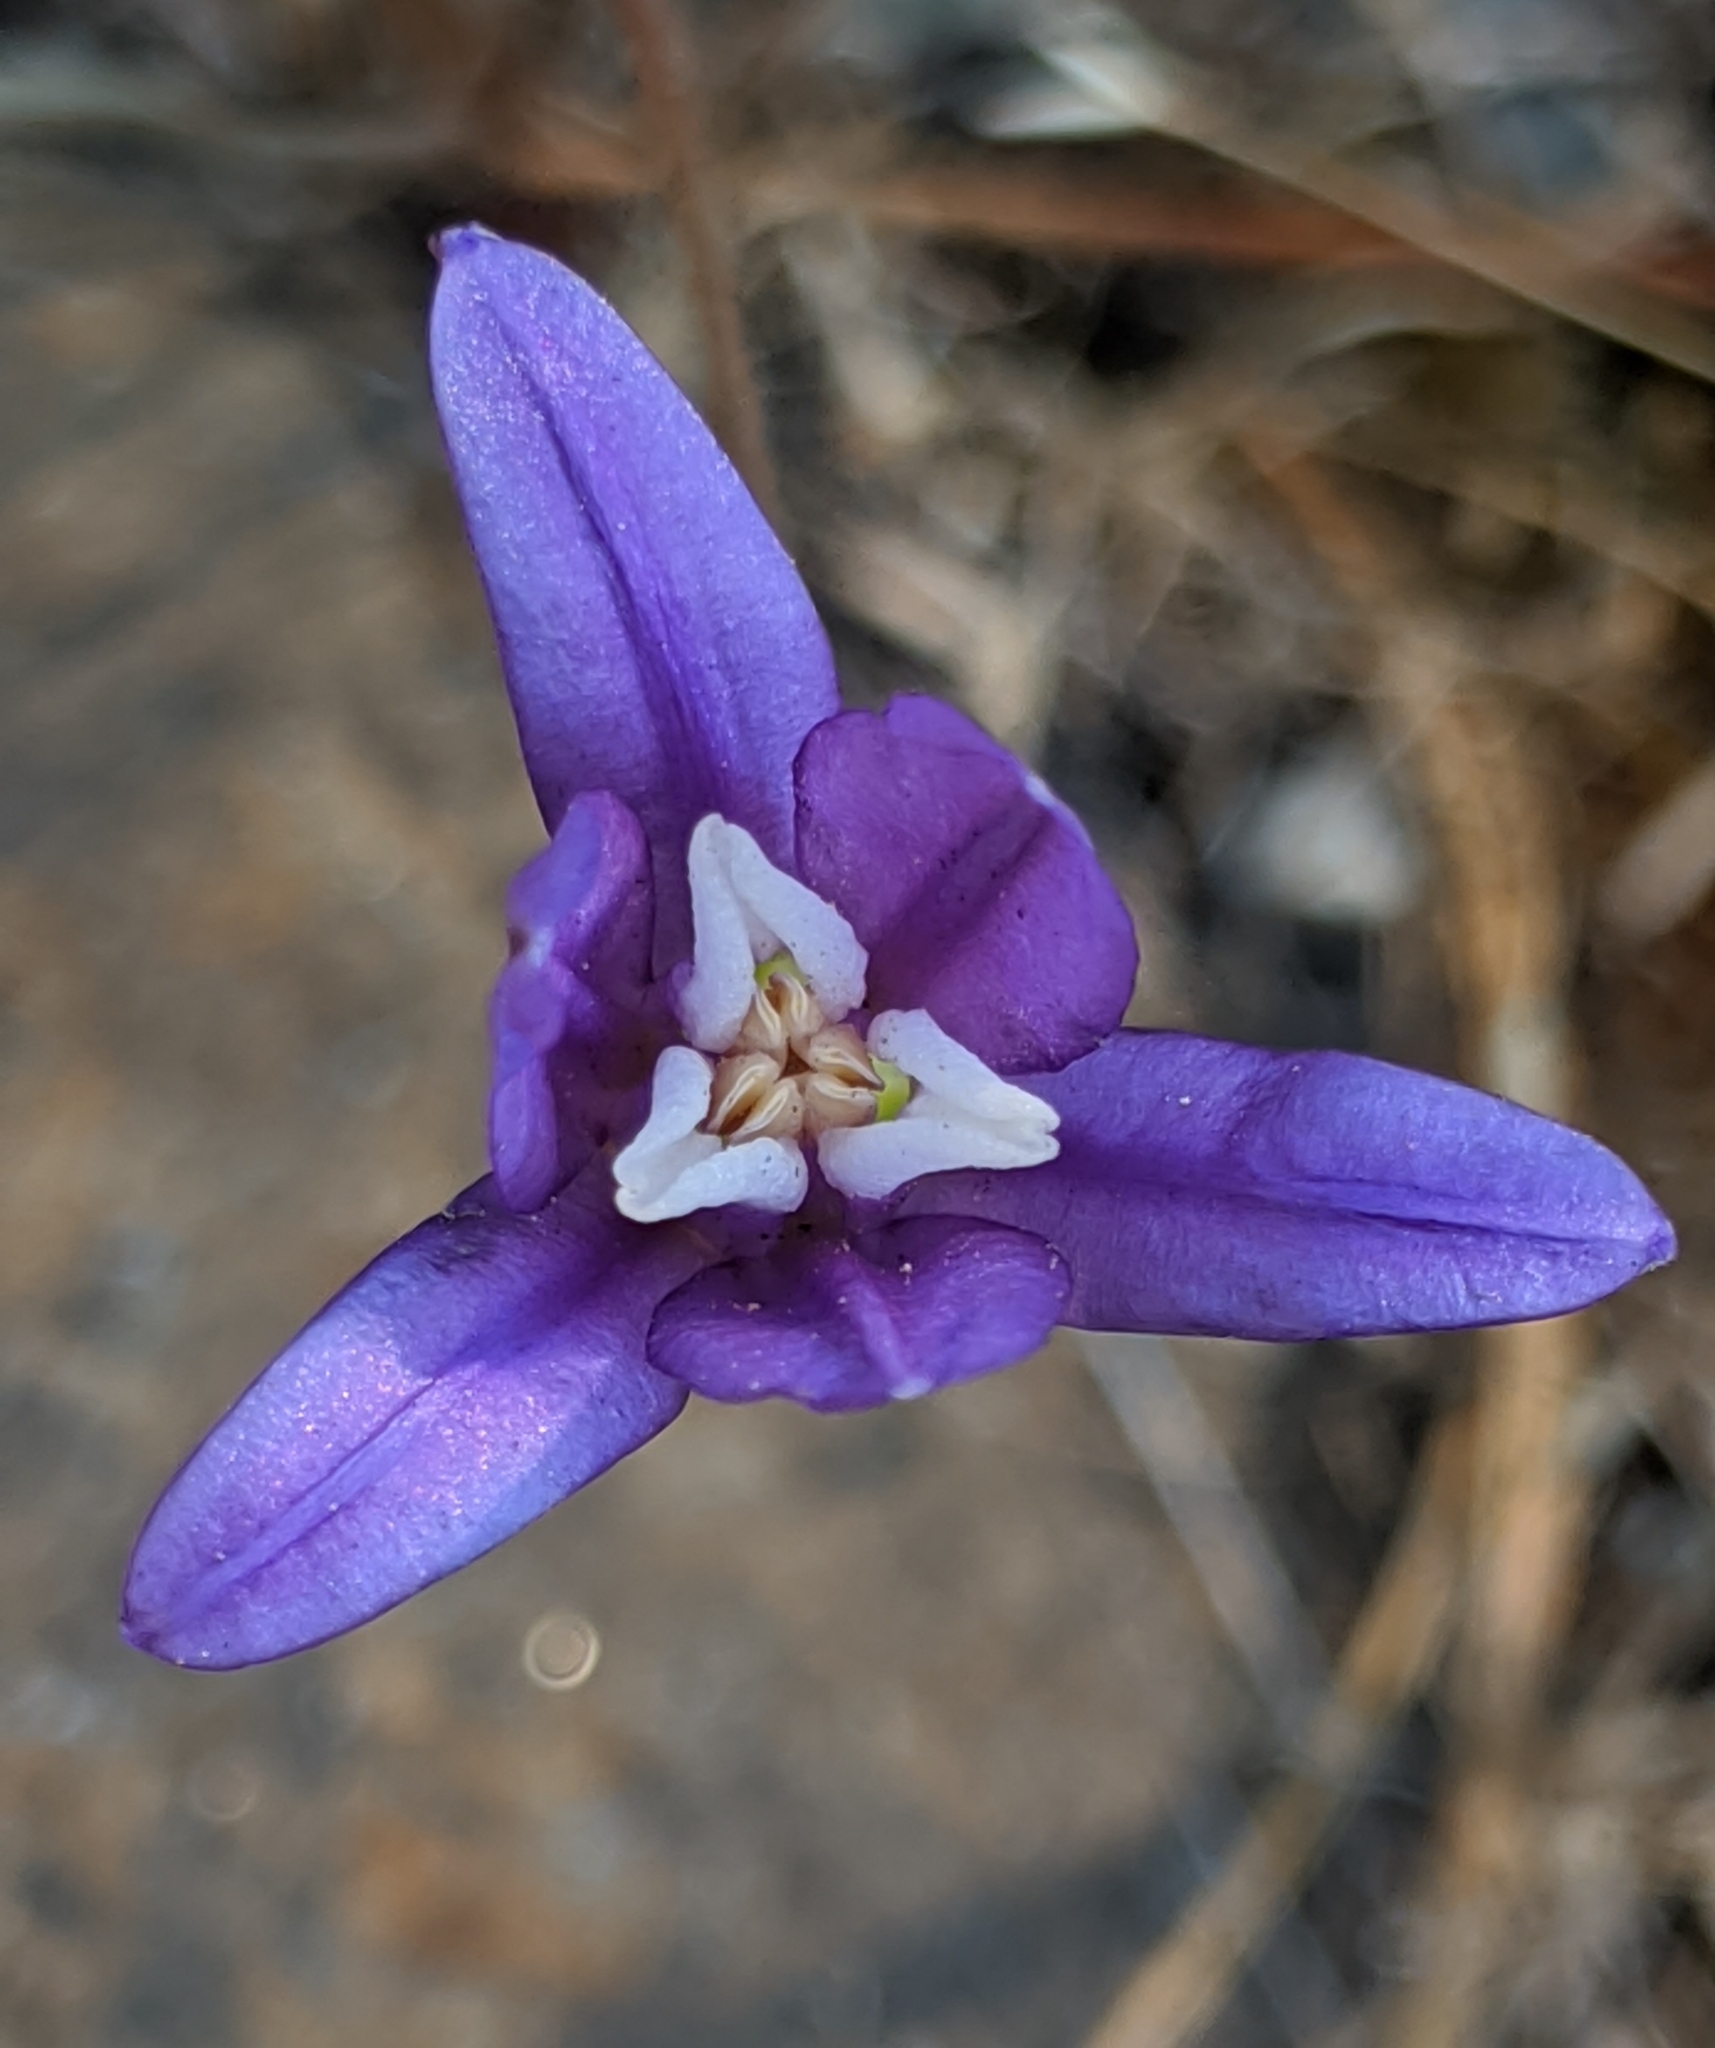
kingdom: Plantae
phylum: Tracheophyta
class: Liliopsida
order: Asparagales
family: Asparagaceae
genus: Brodiaea
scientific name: Brodiaea coronaria
